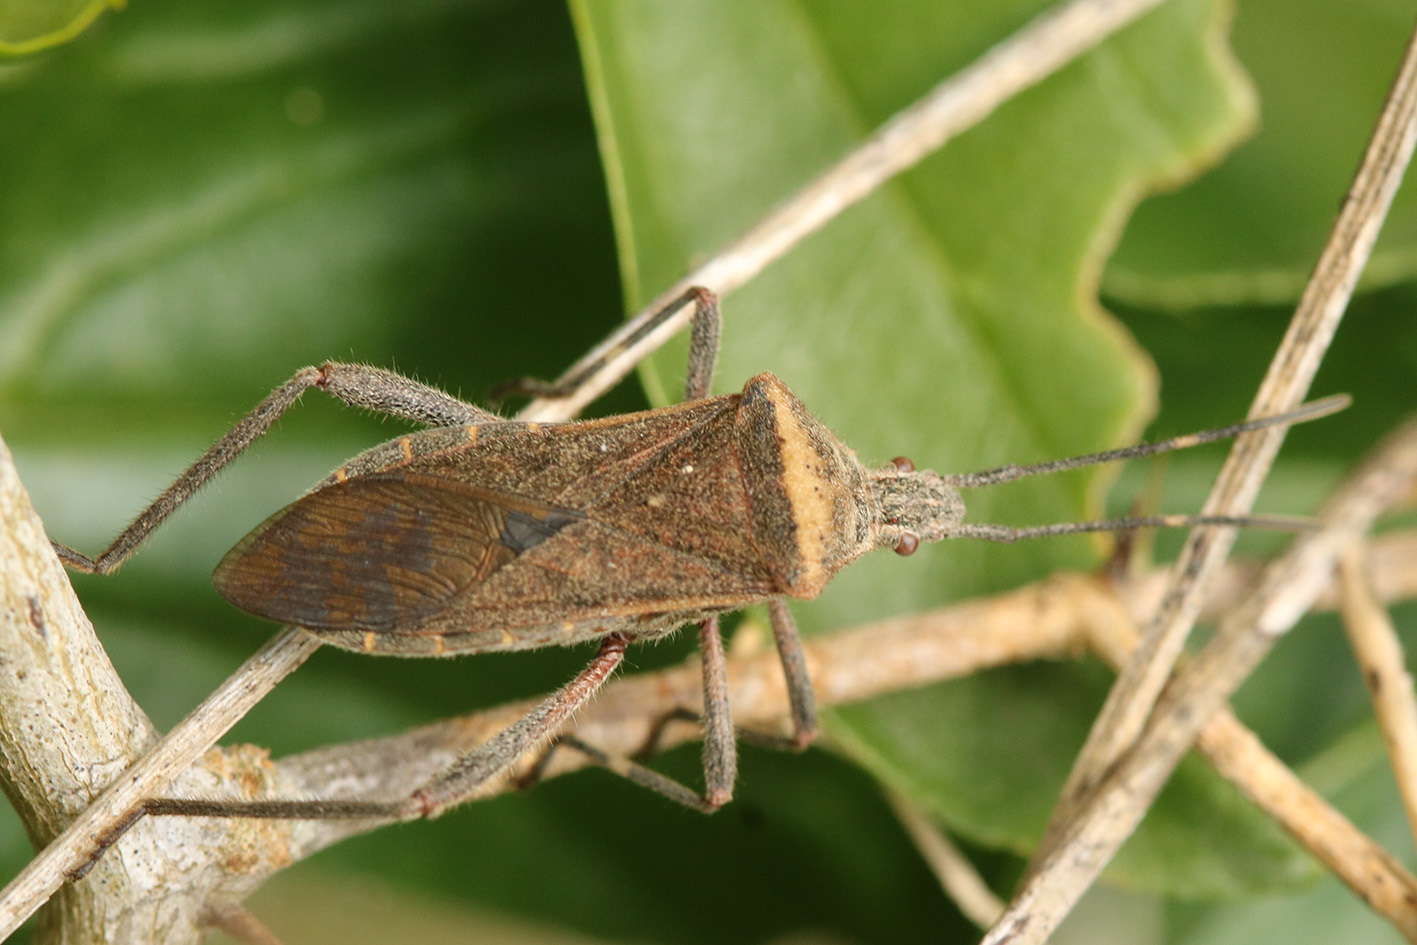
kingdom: Animalia
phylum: Arthropoda
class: Insecta
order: Hemiptera
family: Coreidae
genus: Phthiacnemia
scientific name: Phthiacnemia picta
